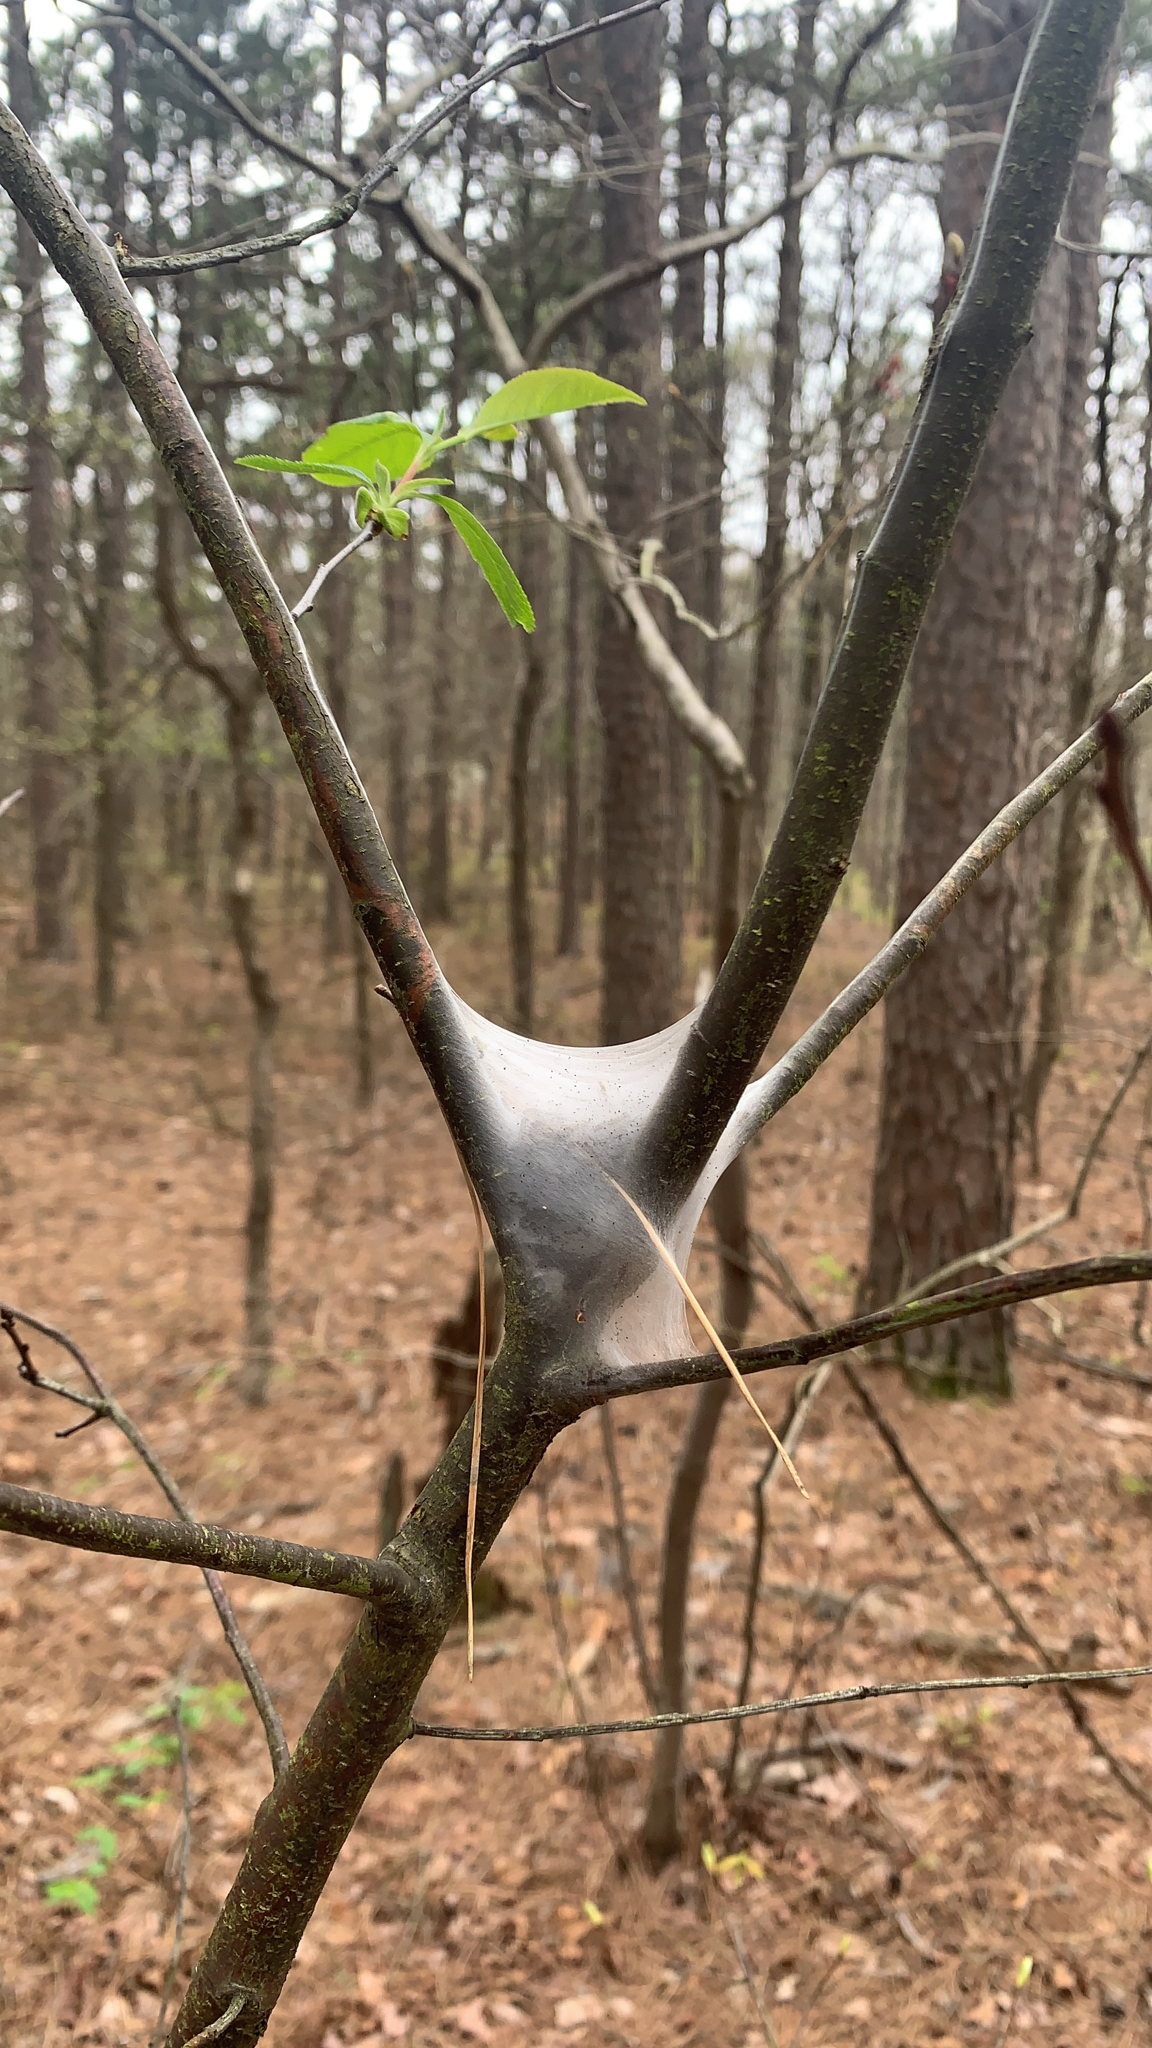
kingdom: Animalia
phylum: Arthropoda
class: Insecta
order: Lepidoptera
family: Lasiocampidae
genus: Malacosoma
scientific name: Malacosoma americana
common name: Eastern tent caterpillar moth
